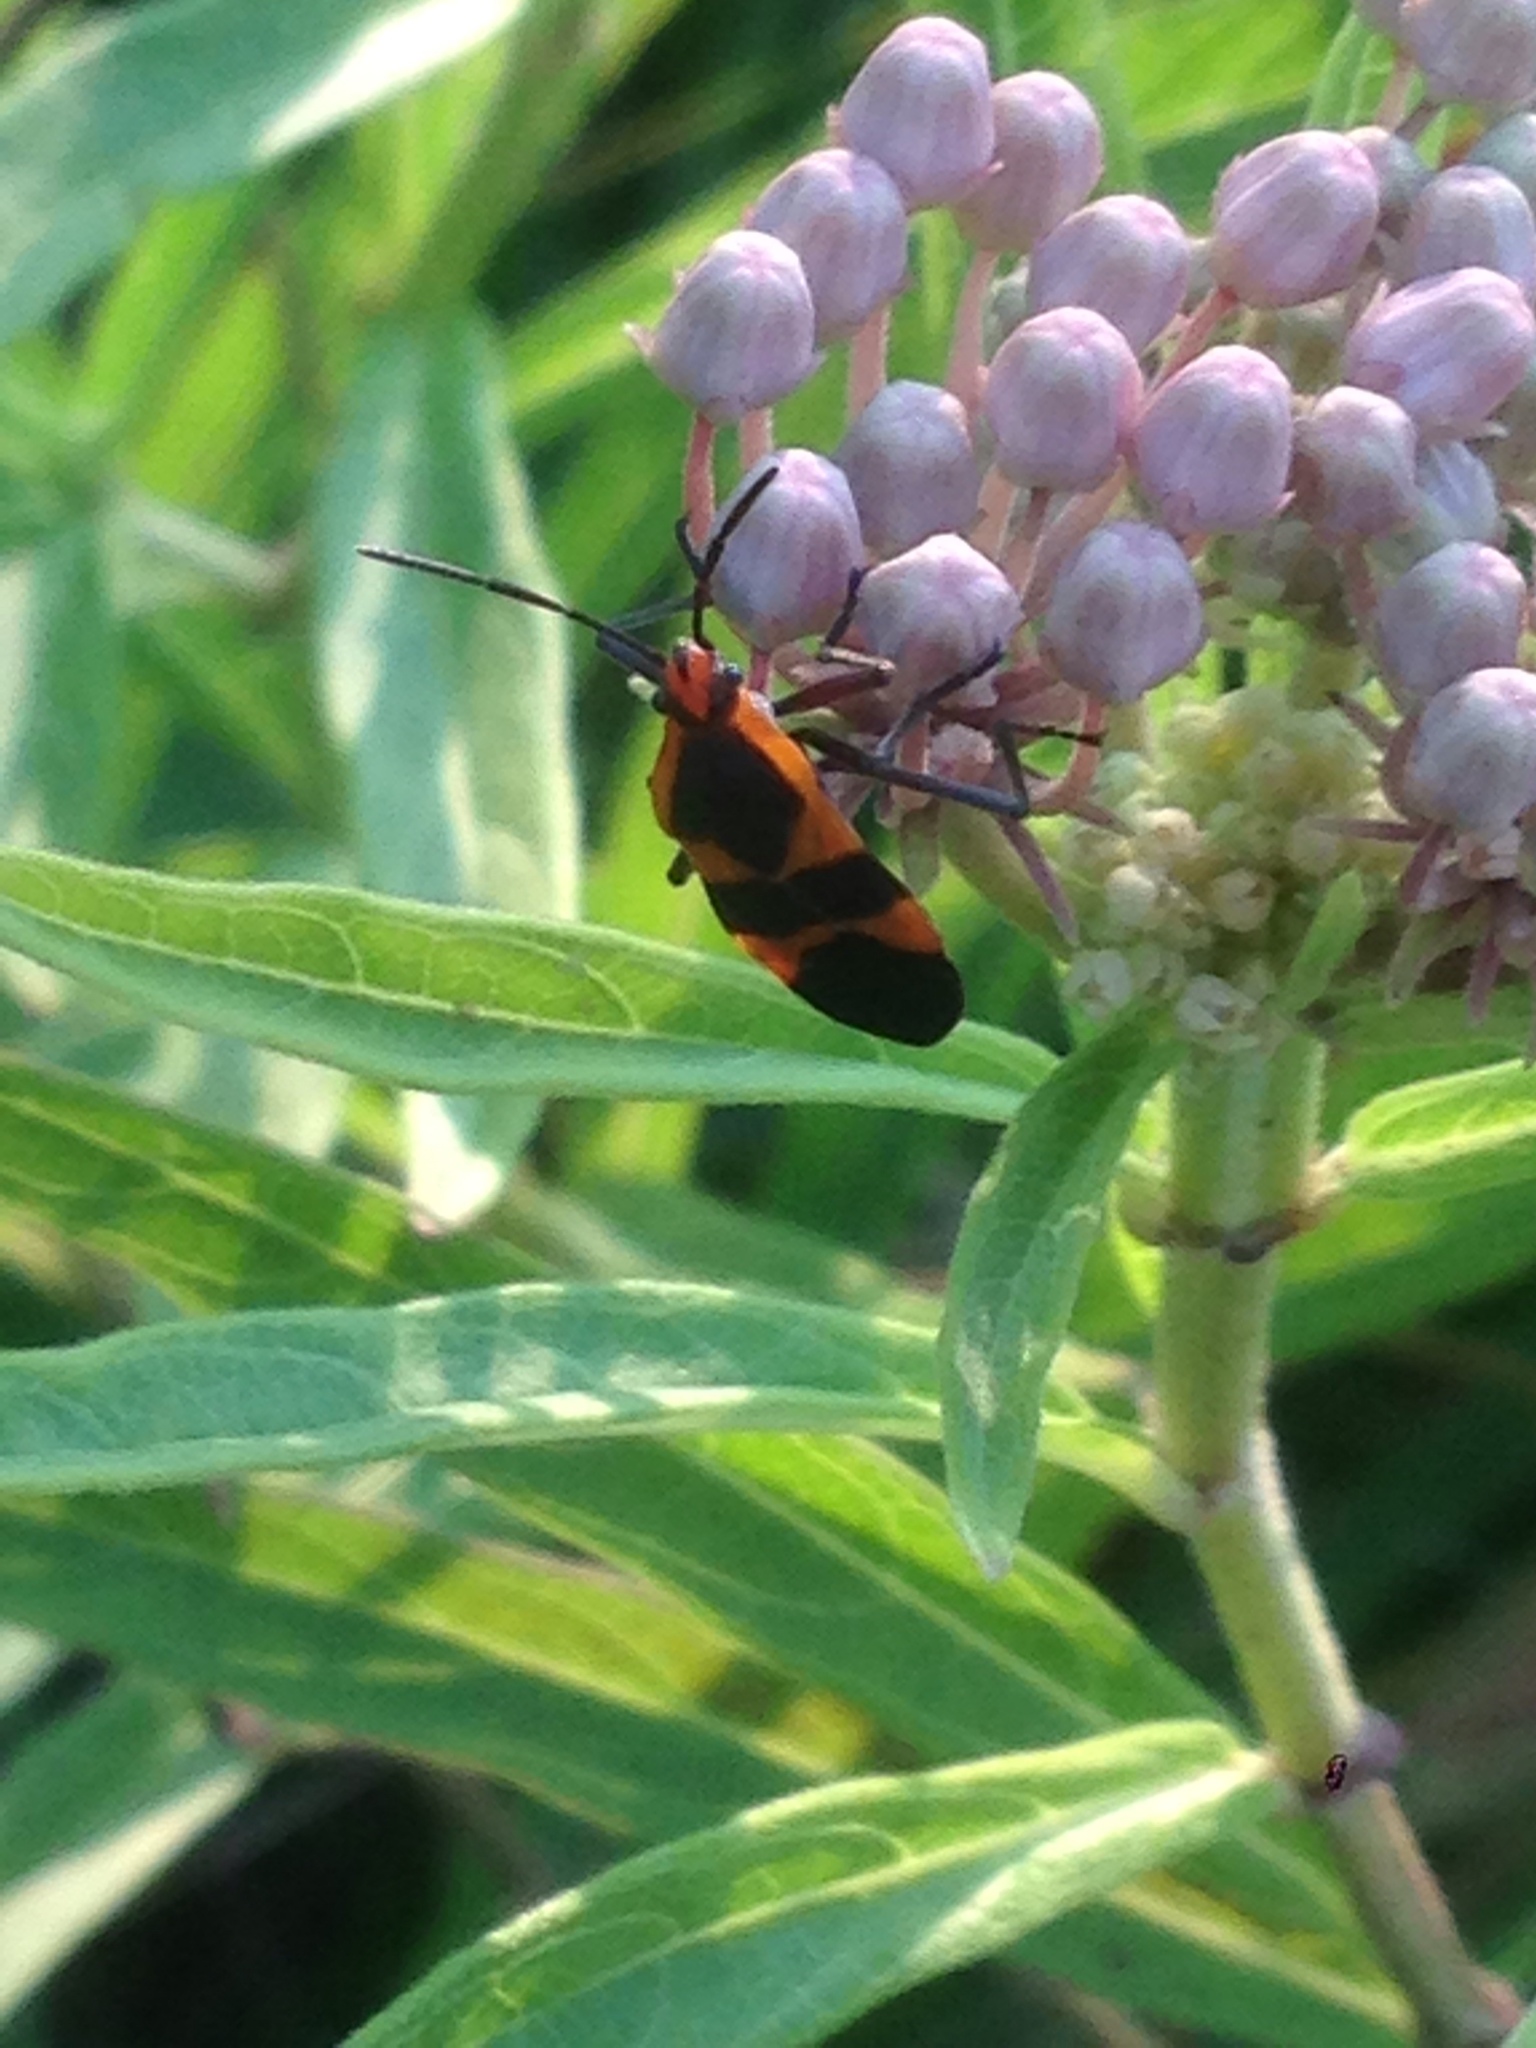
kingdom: Animalia
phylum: Arthropoda
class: Insecta
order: Hemiptera
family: Lygaeidae
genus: Oncopeltus
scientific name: Oncopeltus fasciatus
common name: Large milkweed bug
